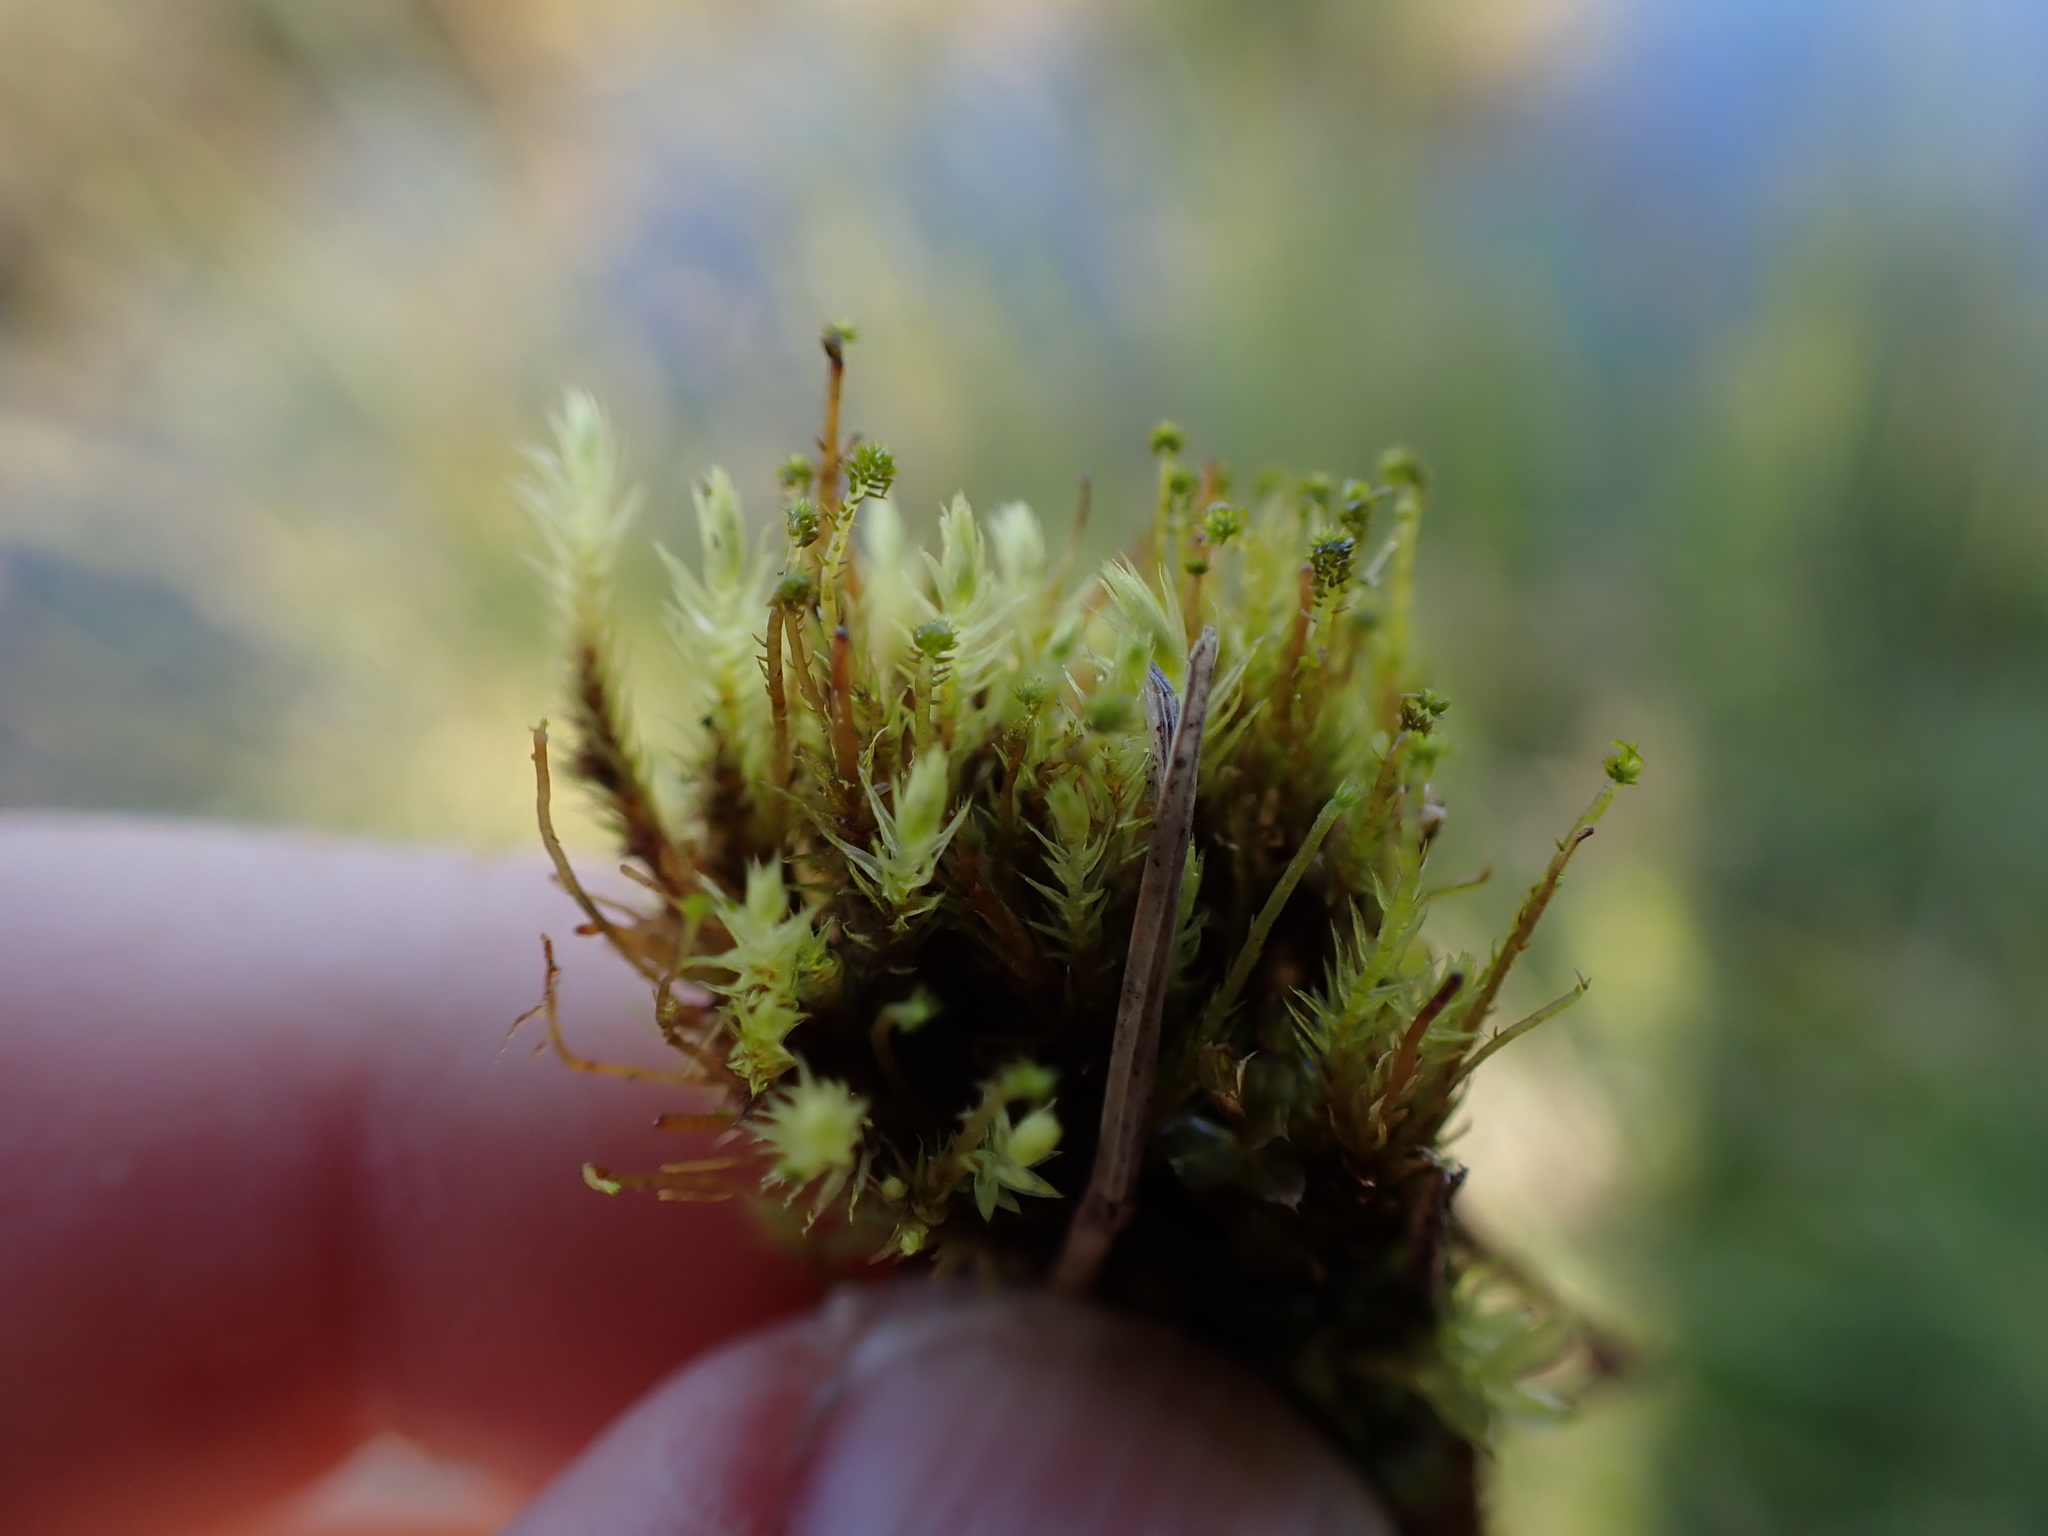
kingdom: Plantae
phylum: Bryophyta
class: Bryopsida
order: Aulacomniales
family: Aulacomniaceae
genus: Aulacomnium
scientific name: Aulacomnium palustre
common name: Bog groove-moss
